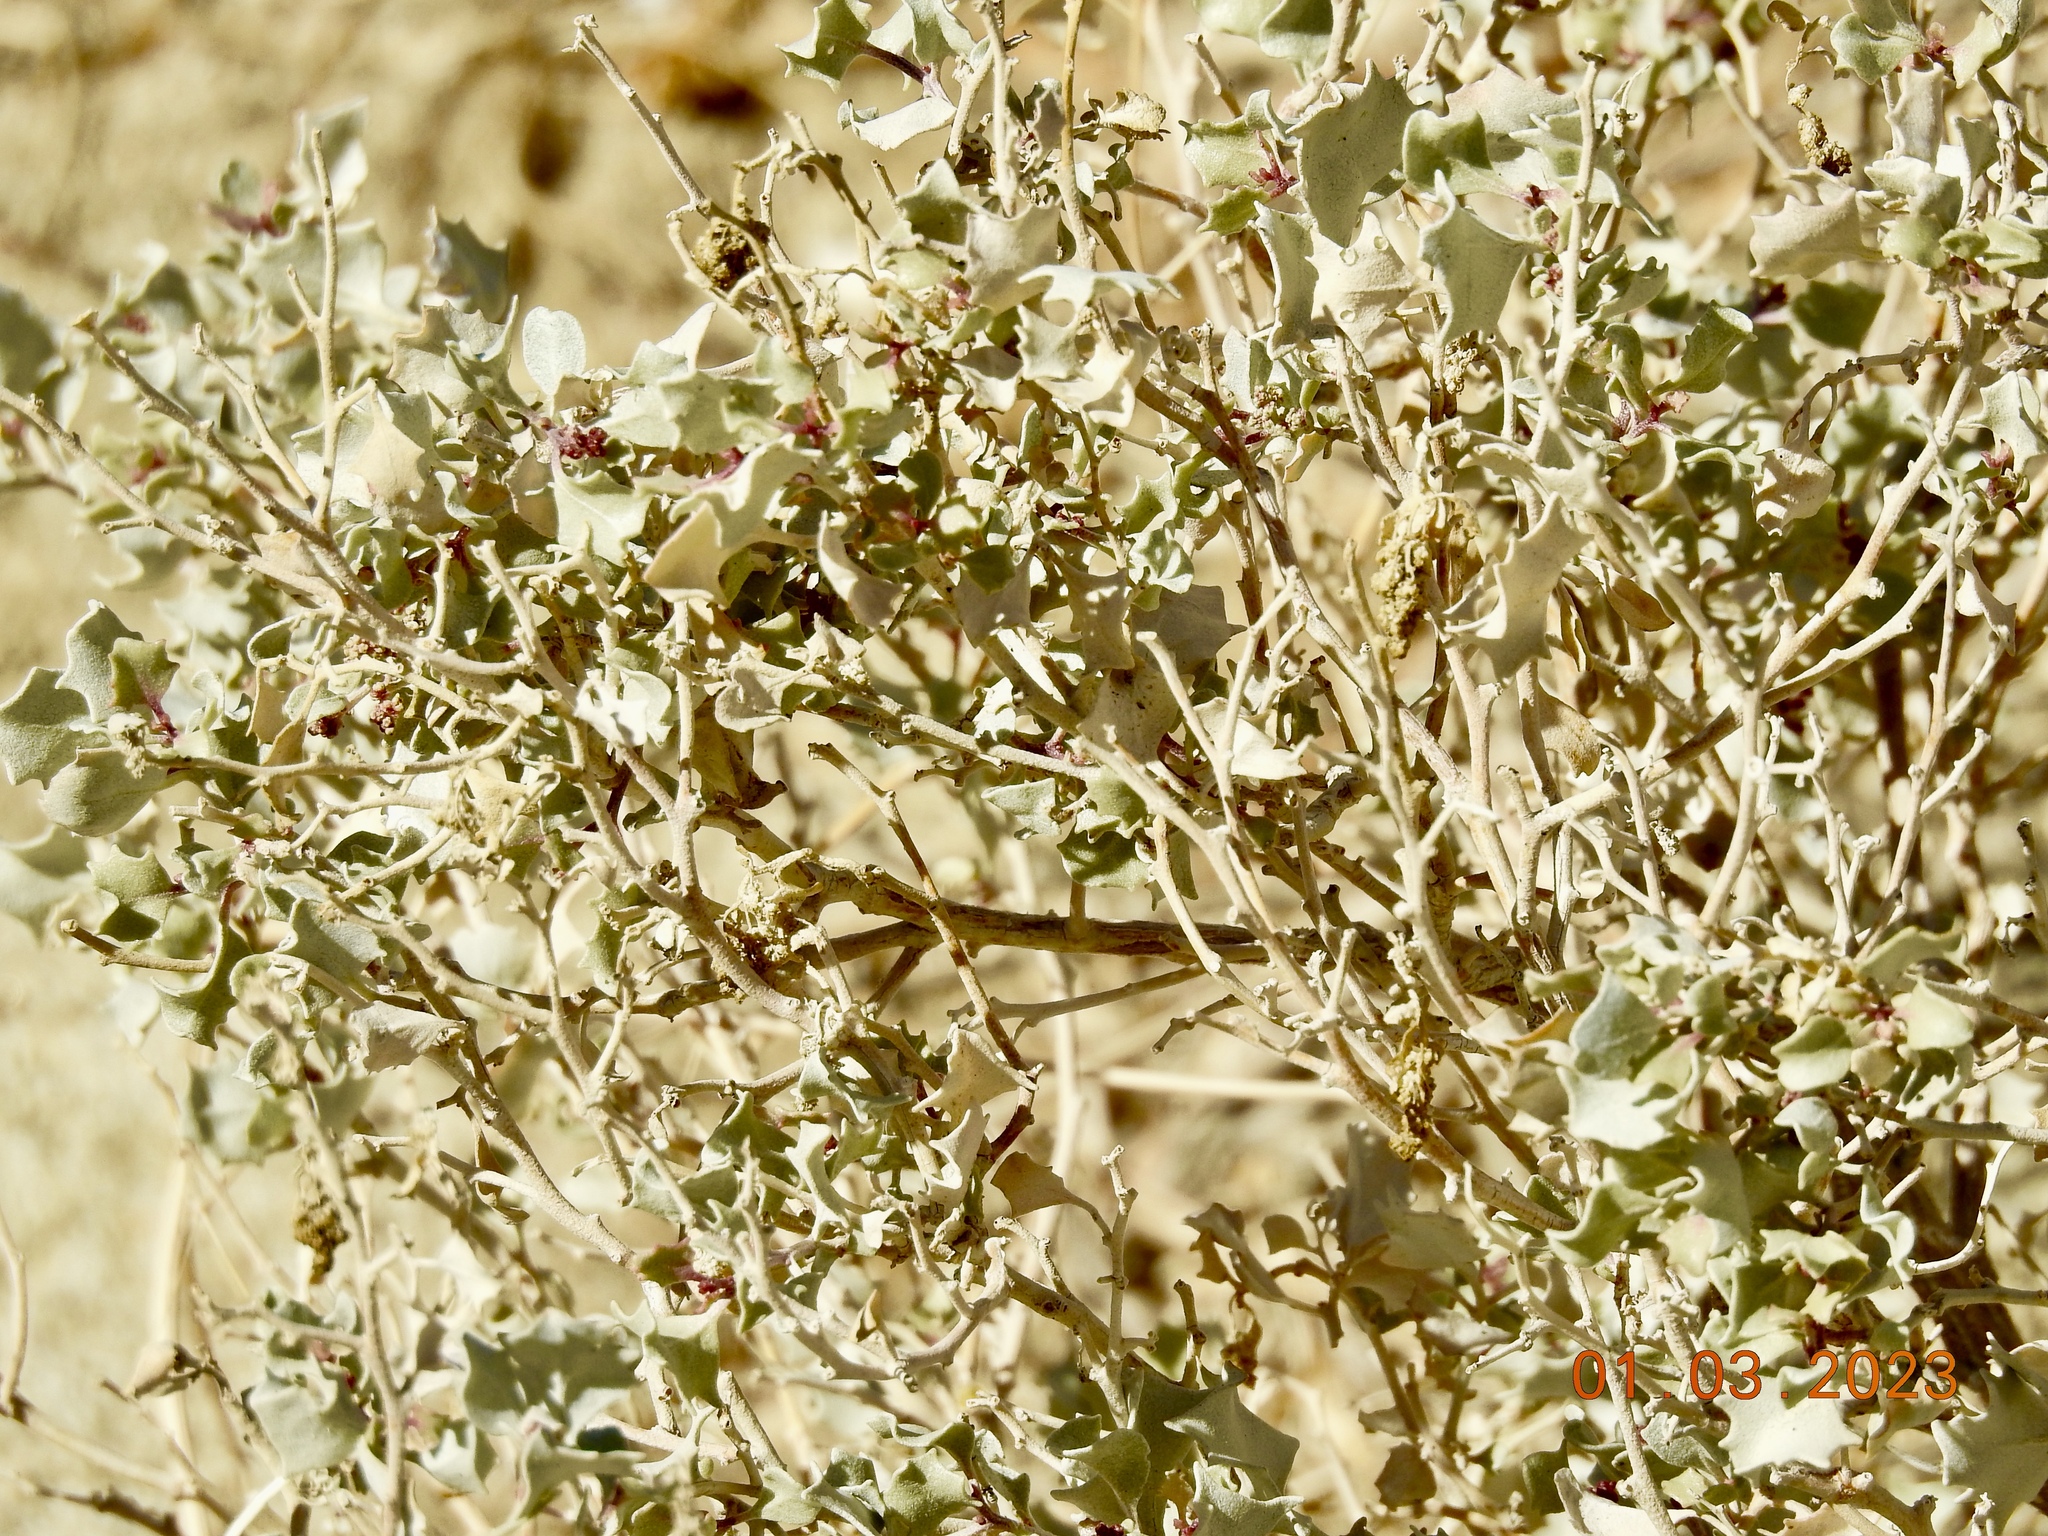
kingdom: Plantae
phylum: Tracheophyta
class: Magnoliopsida
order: Caryophyllales
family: Amaranthaceae
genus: Atriplex
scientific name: Atriplex hymenelytra
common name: Desert-holly
